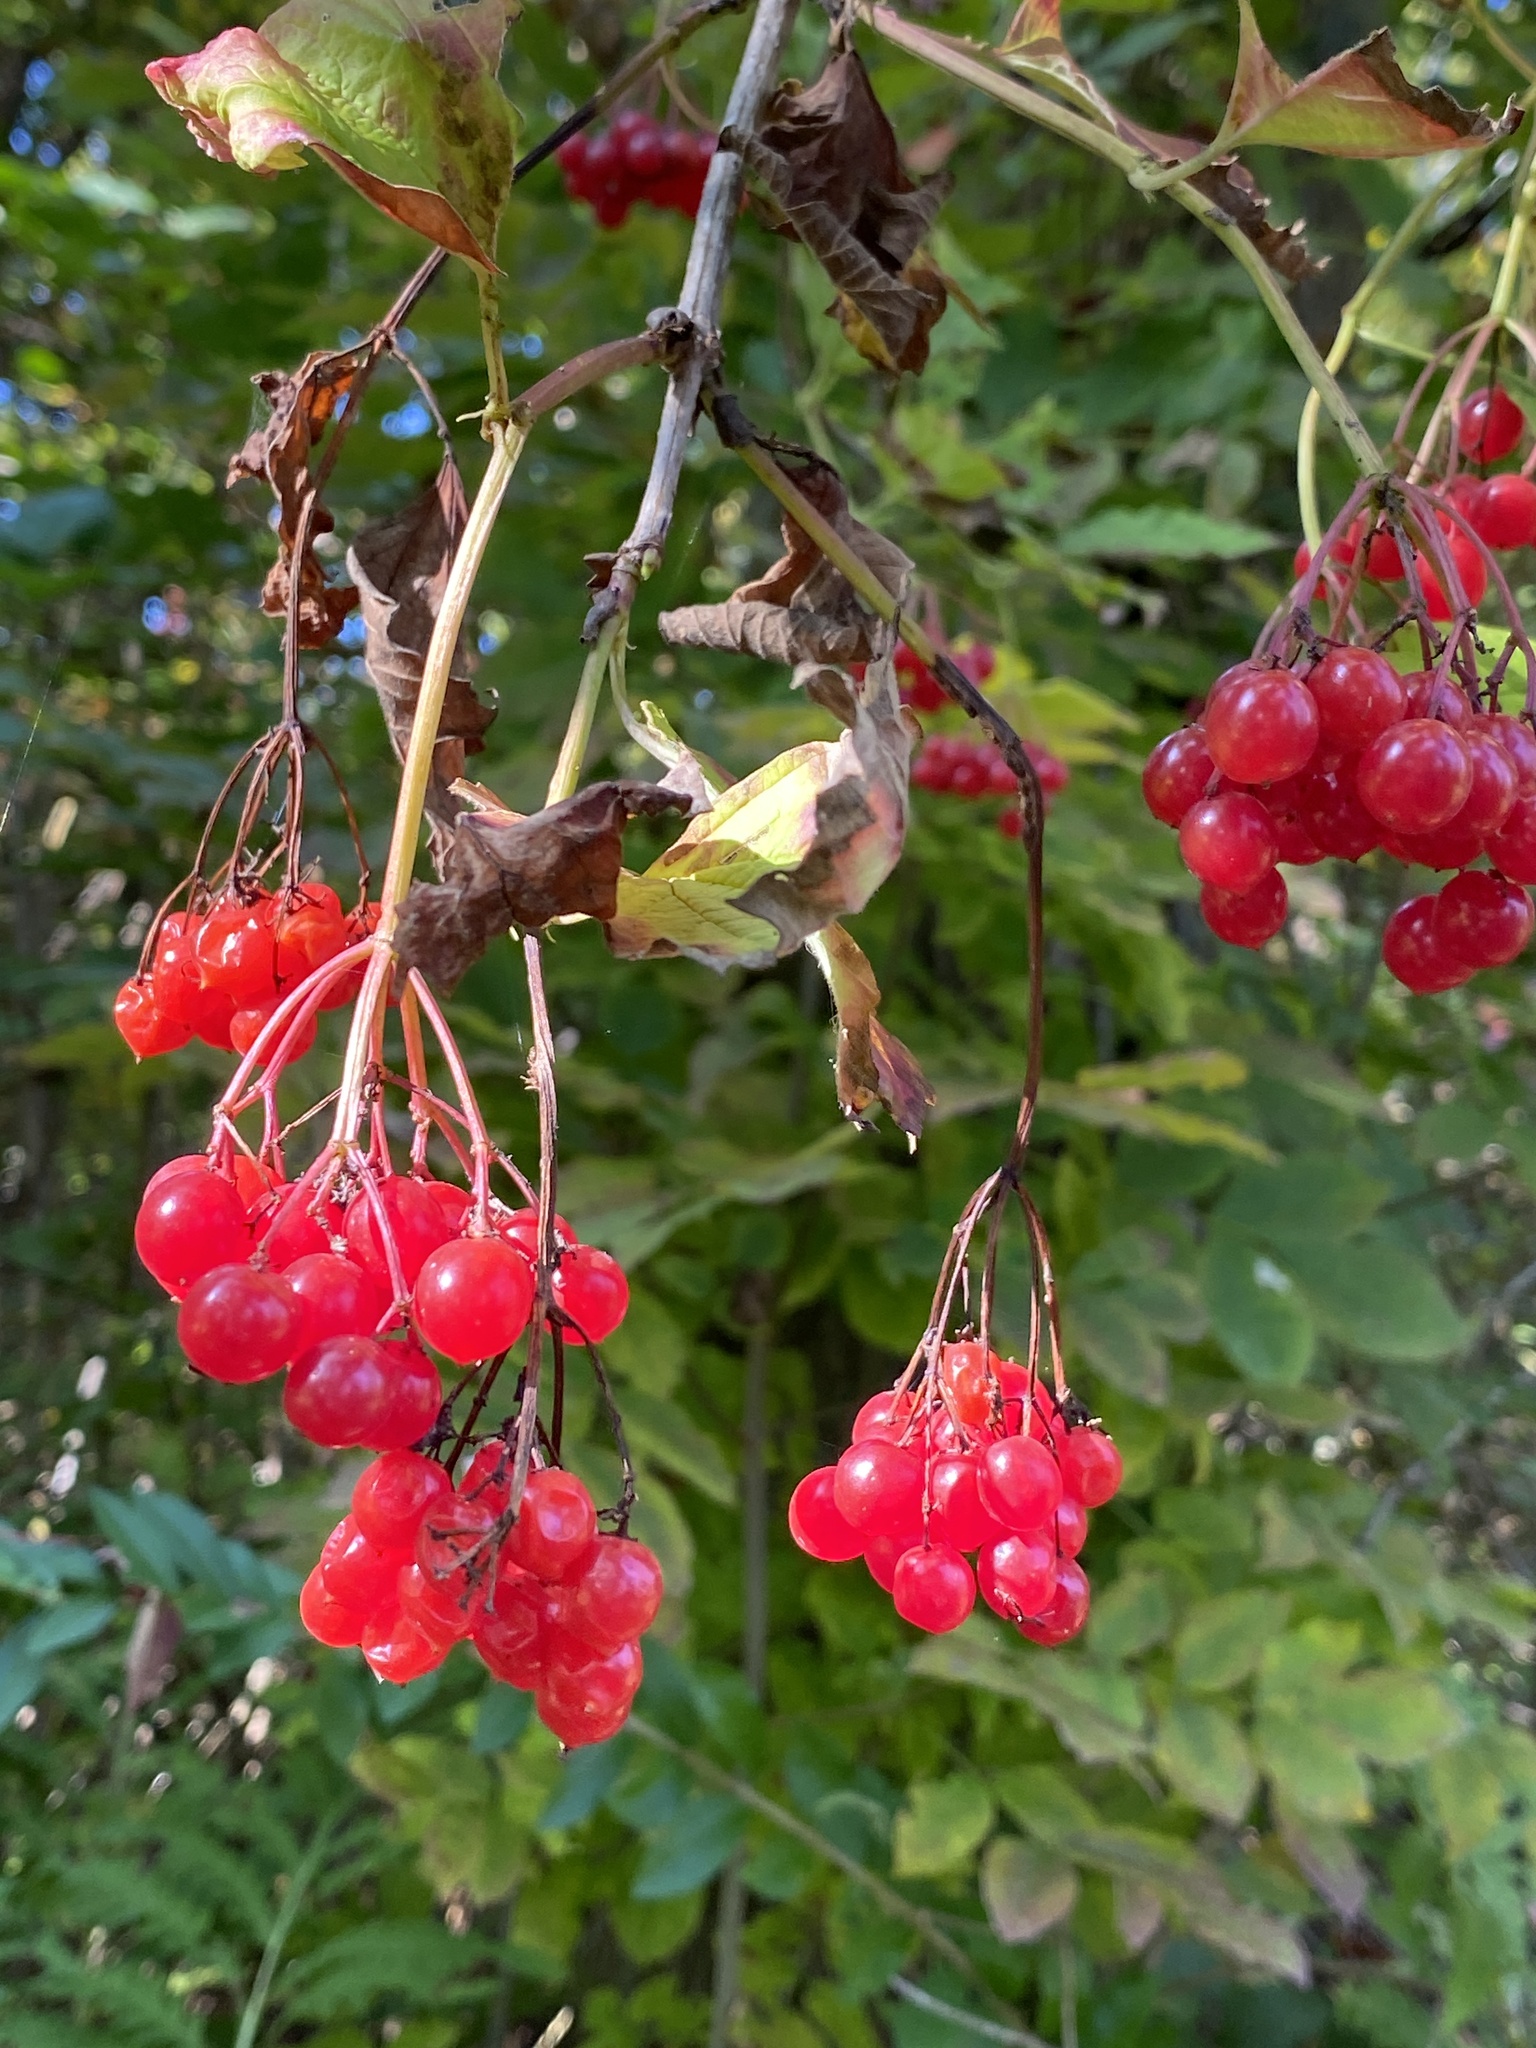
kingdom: Plantae
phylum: Tracheophyta
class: Magnoliopsida
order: Dipsacales
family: Viburnaceae
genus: Viburnum
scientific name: Viburnum opulus
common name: Guelder-rose
